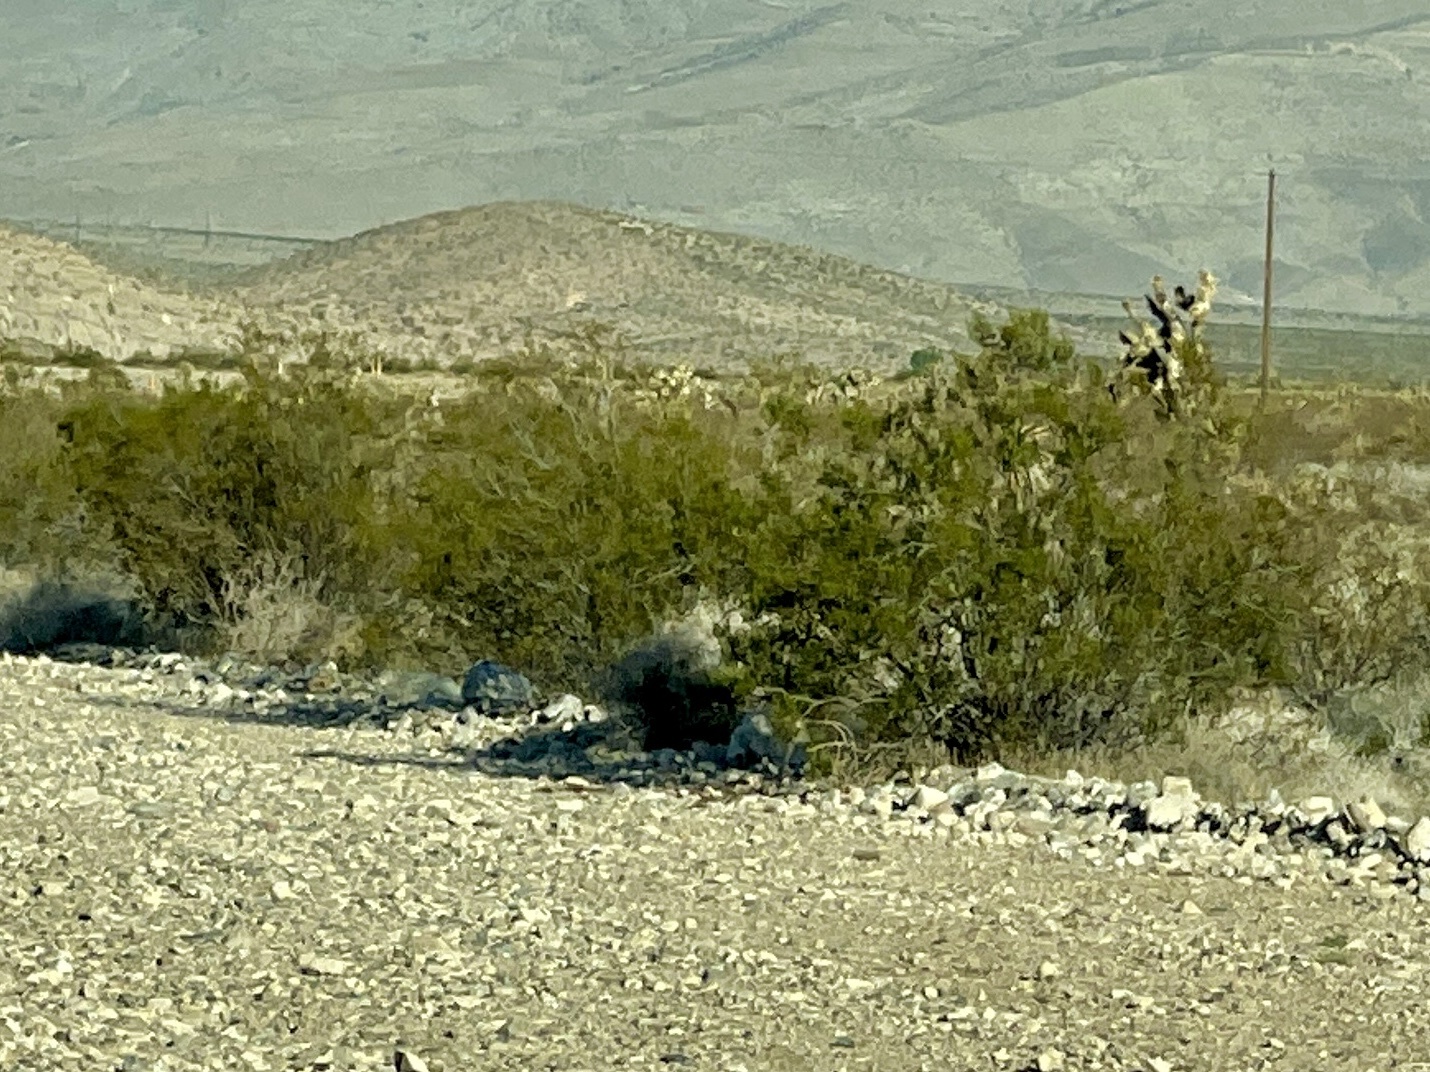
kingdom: Plantae
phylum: Tracheophyta
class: Magnoliopsida
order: Zygophyllales
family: Zygophyllaceae
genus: Larrea
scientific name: Larrea tridentata
